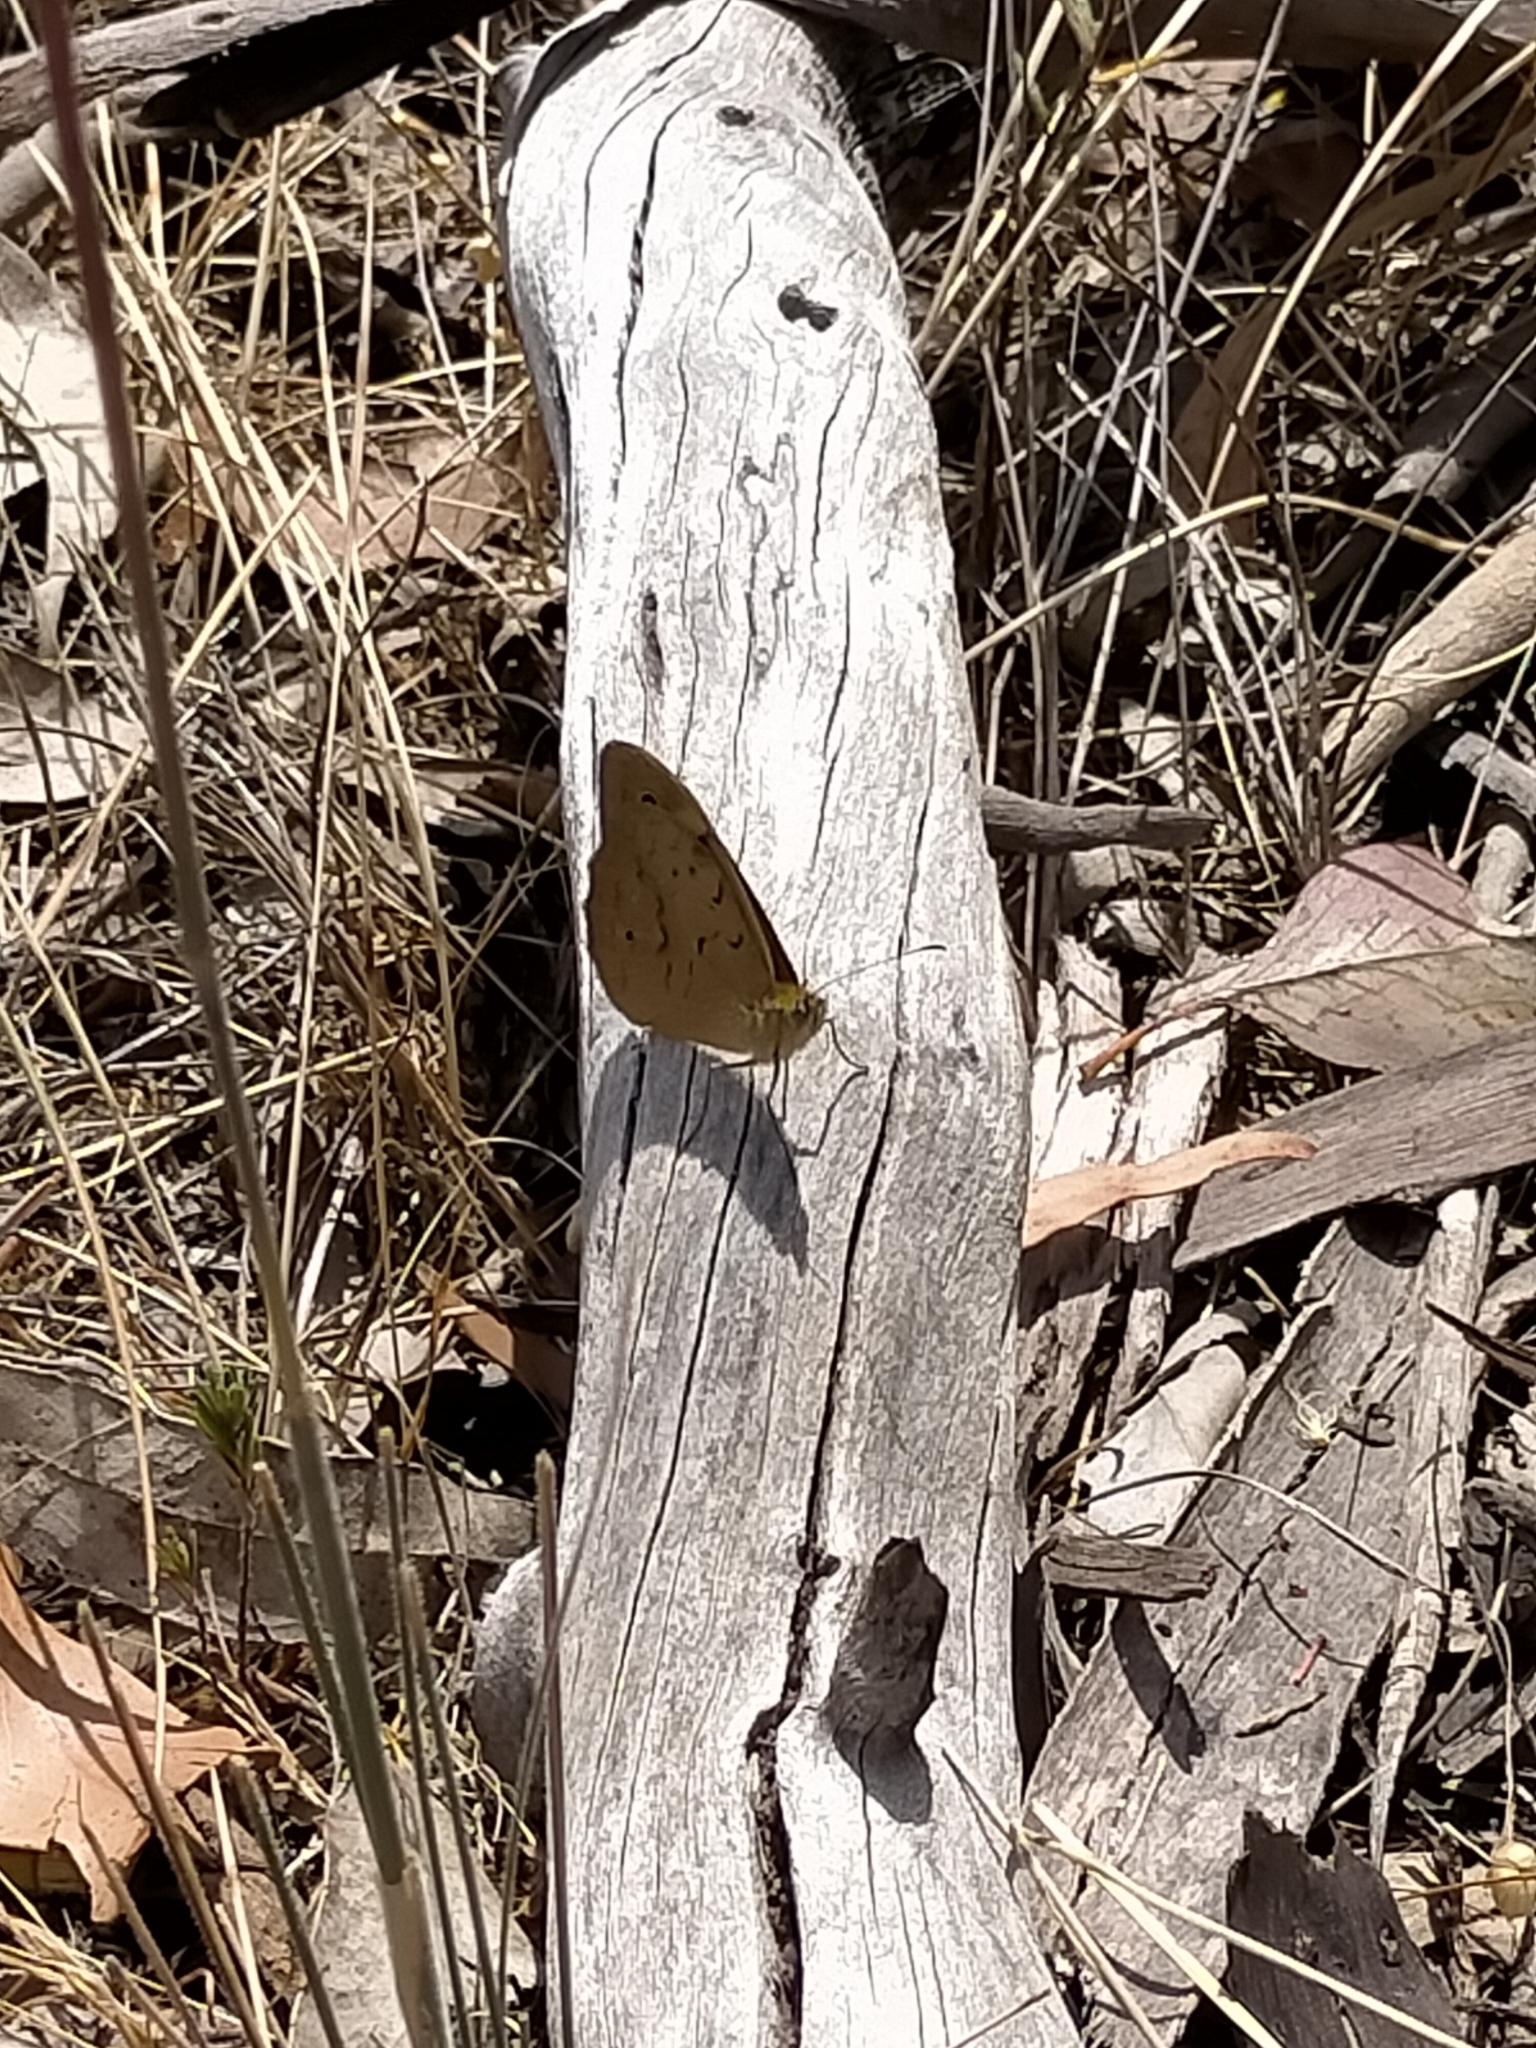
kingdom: Animalia
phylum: Arthropoda
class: Insecta
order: Lepidoptera
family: Nymphalidae
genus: Heteronympha
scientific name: Heteronympha merope
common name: Common brown
